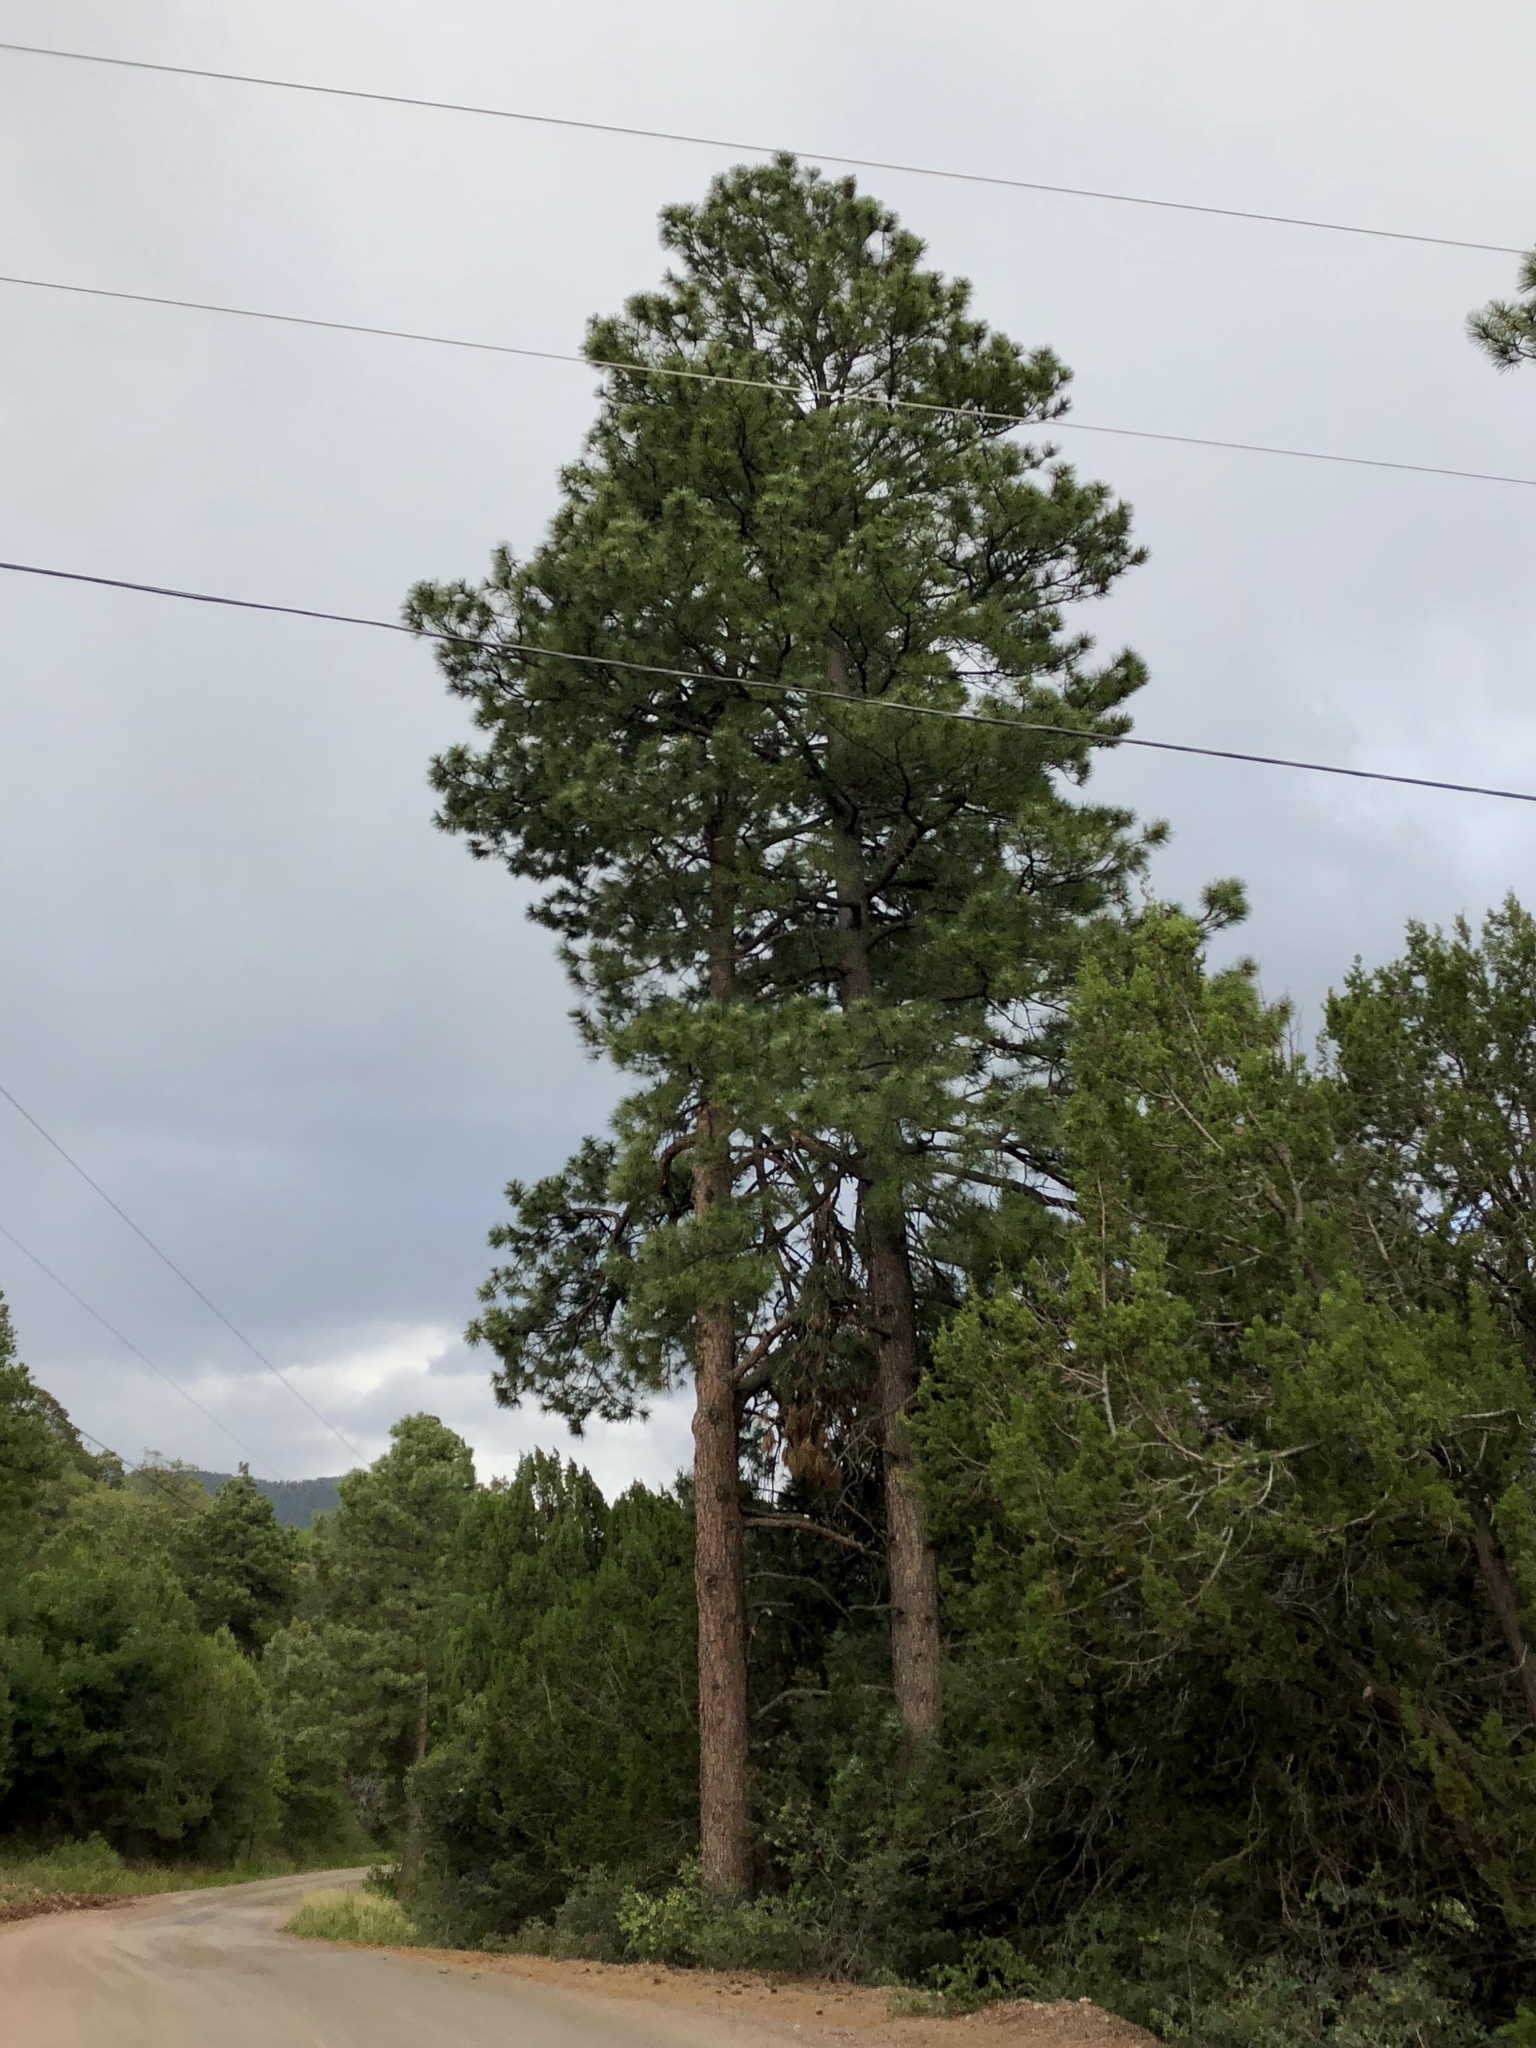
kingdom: Plantae
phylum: Tracheophyta
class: Pinopsida
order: Pinales
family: Pinaceae
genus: Pinus
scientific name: Pinus ponderosa
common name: Western yellow-pine
